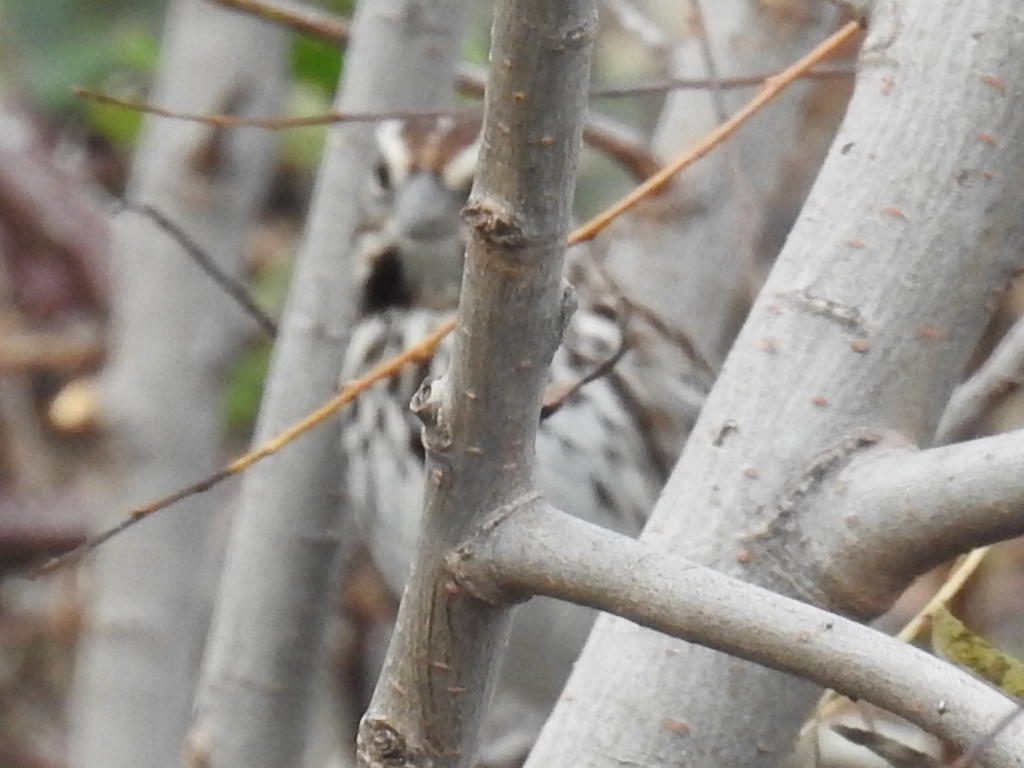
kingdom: Animalia
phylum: Chordata
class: Aves
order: Passeriformes
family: Passerellidae
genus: Melospiza
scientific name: Melospiza melodia
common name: Song sparrow
